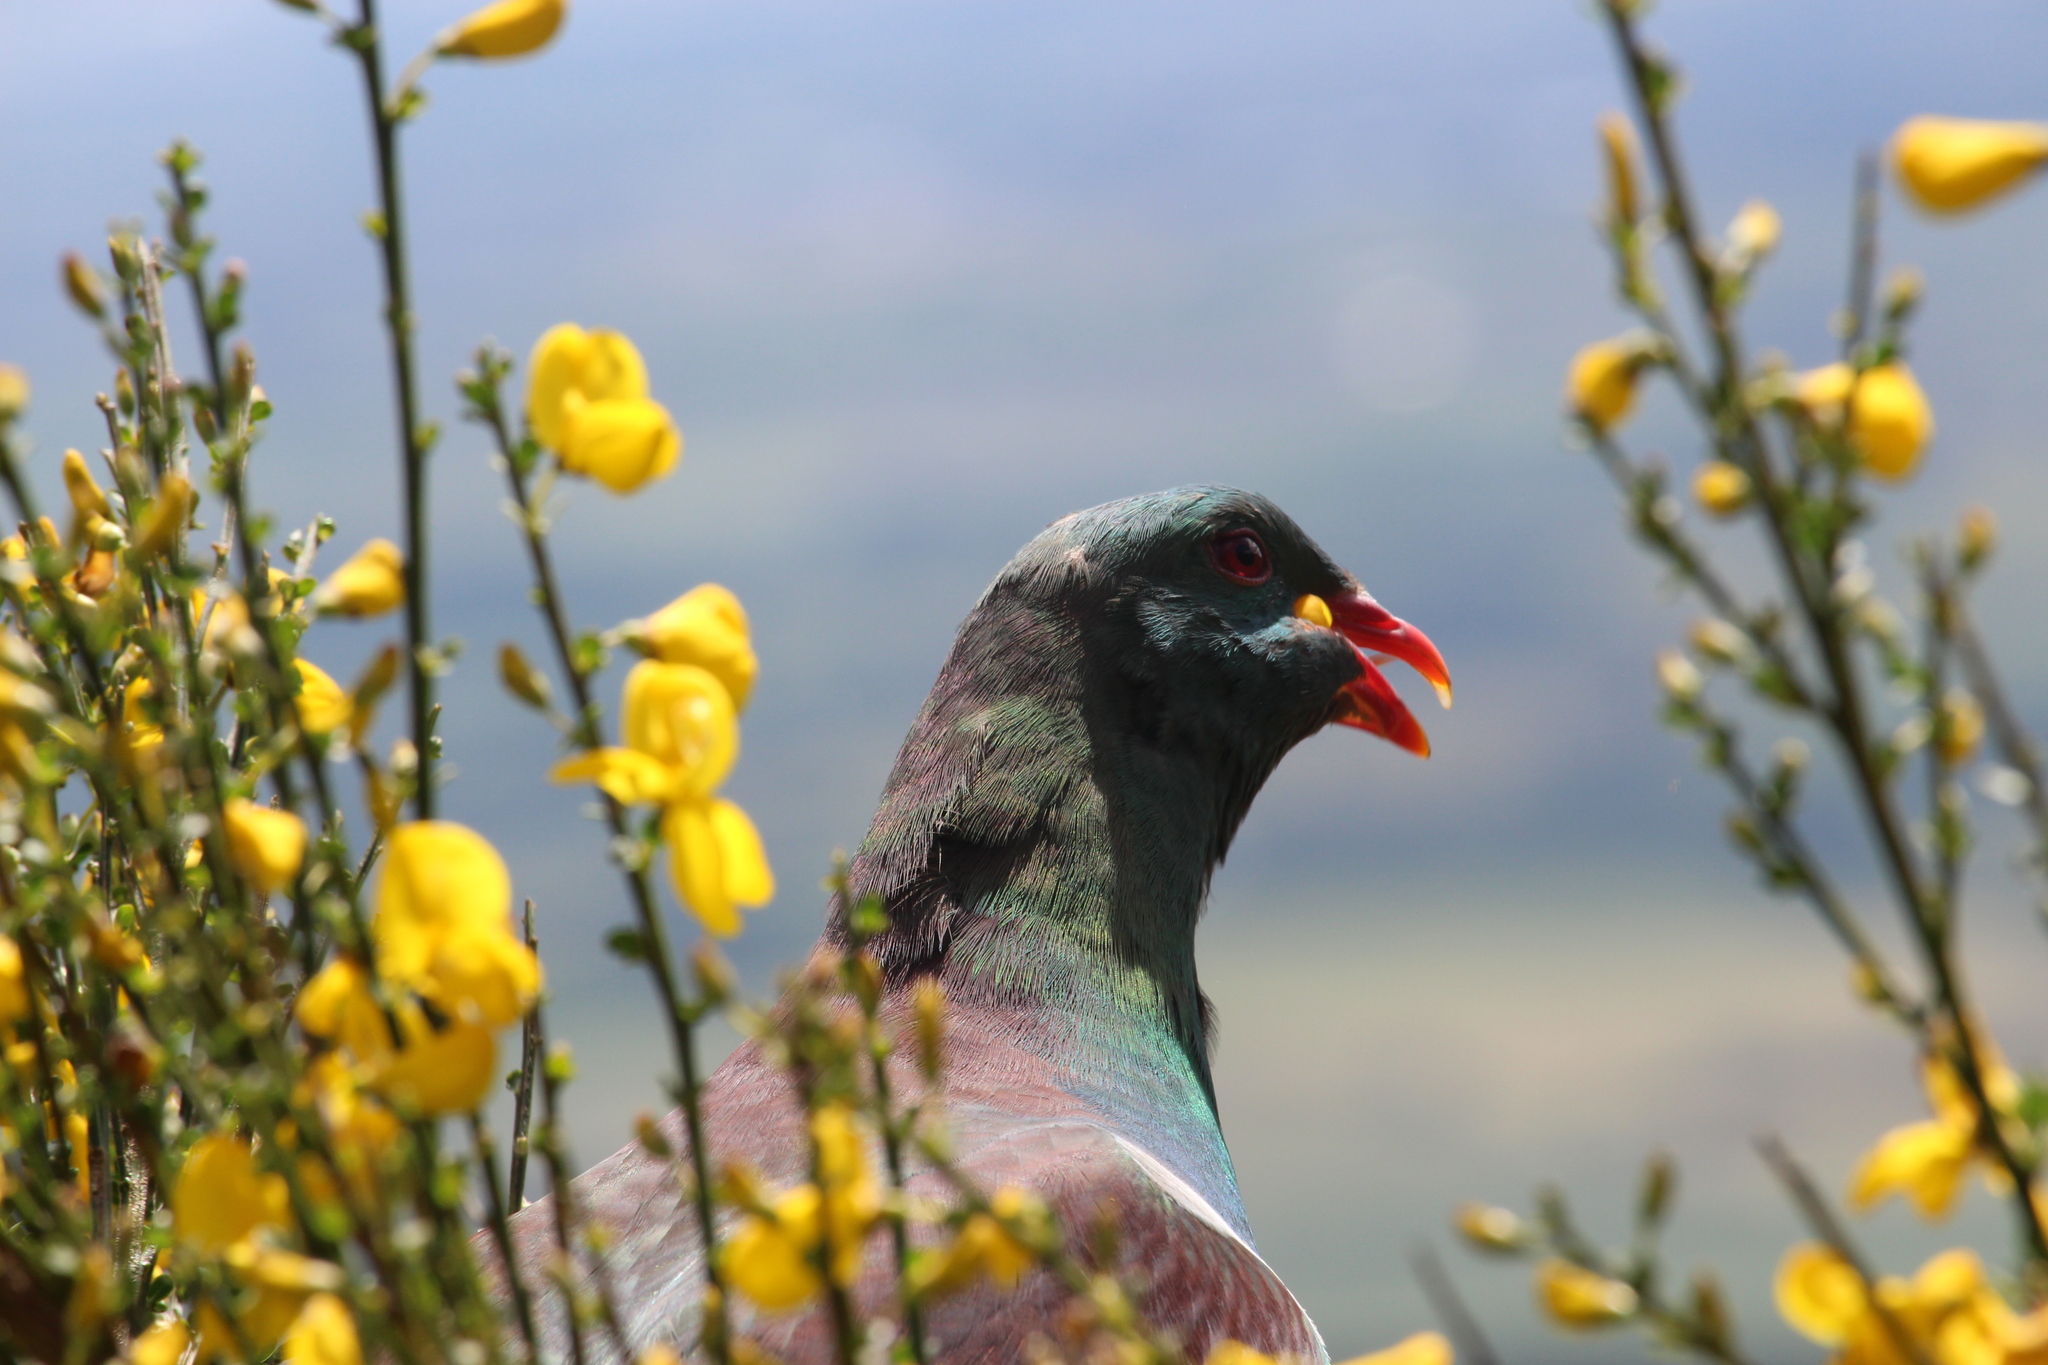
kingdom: Animalia
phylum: Chordata
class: Aves
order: Columbiformes
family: Columbidae
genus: Hemiphaga
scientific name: Hemiphaga novaeseelandiae
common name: New zealand pigeon
